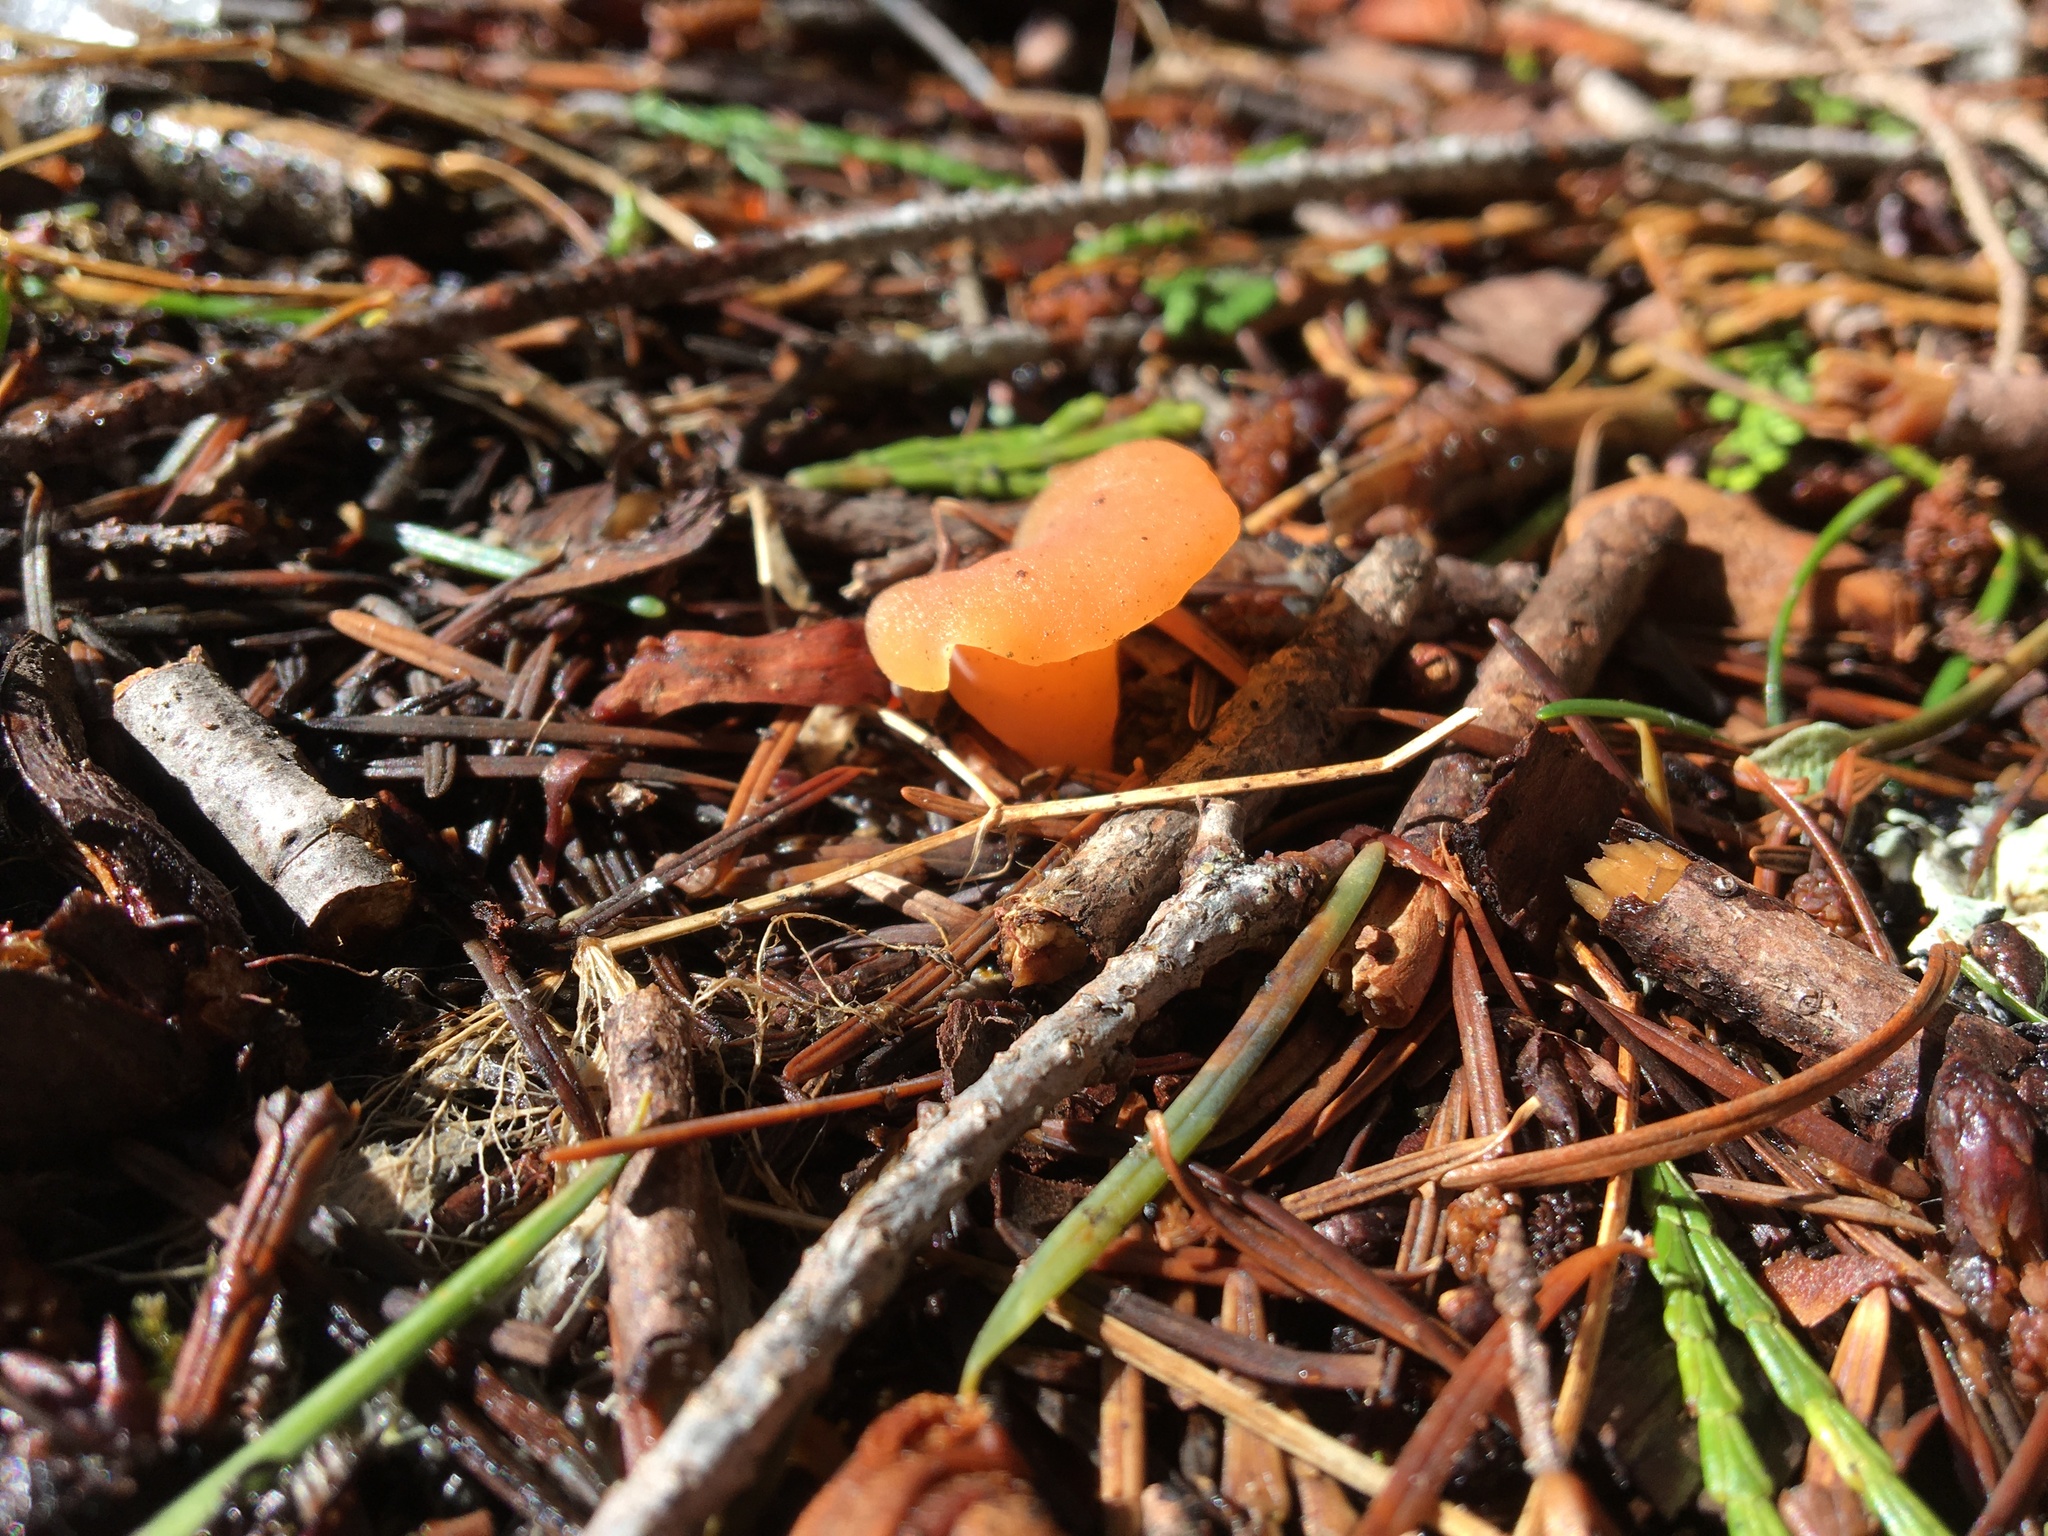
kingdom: Fungi
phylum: Basidiomycota
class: Agaricomycetes
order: Auriculariales
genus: Guepinia
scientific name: Guepinia helvelloides
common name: Salmon salad
